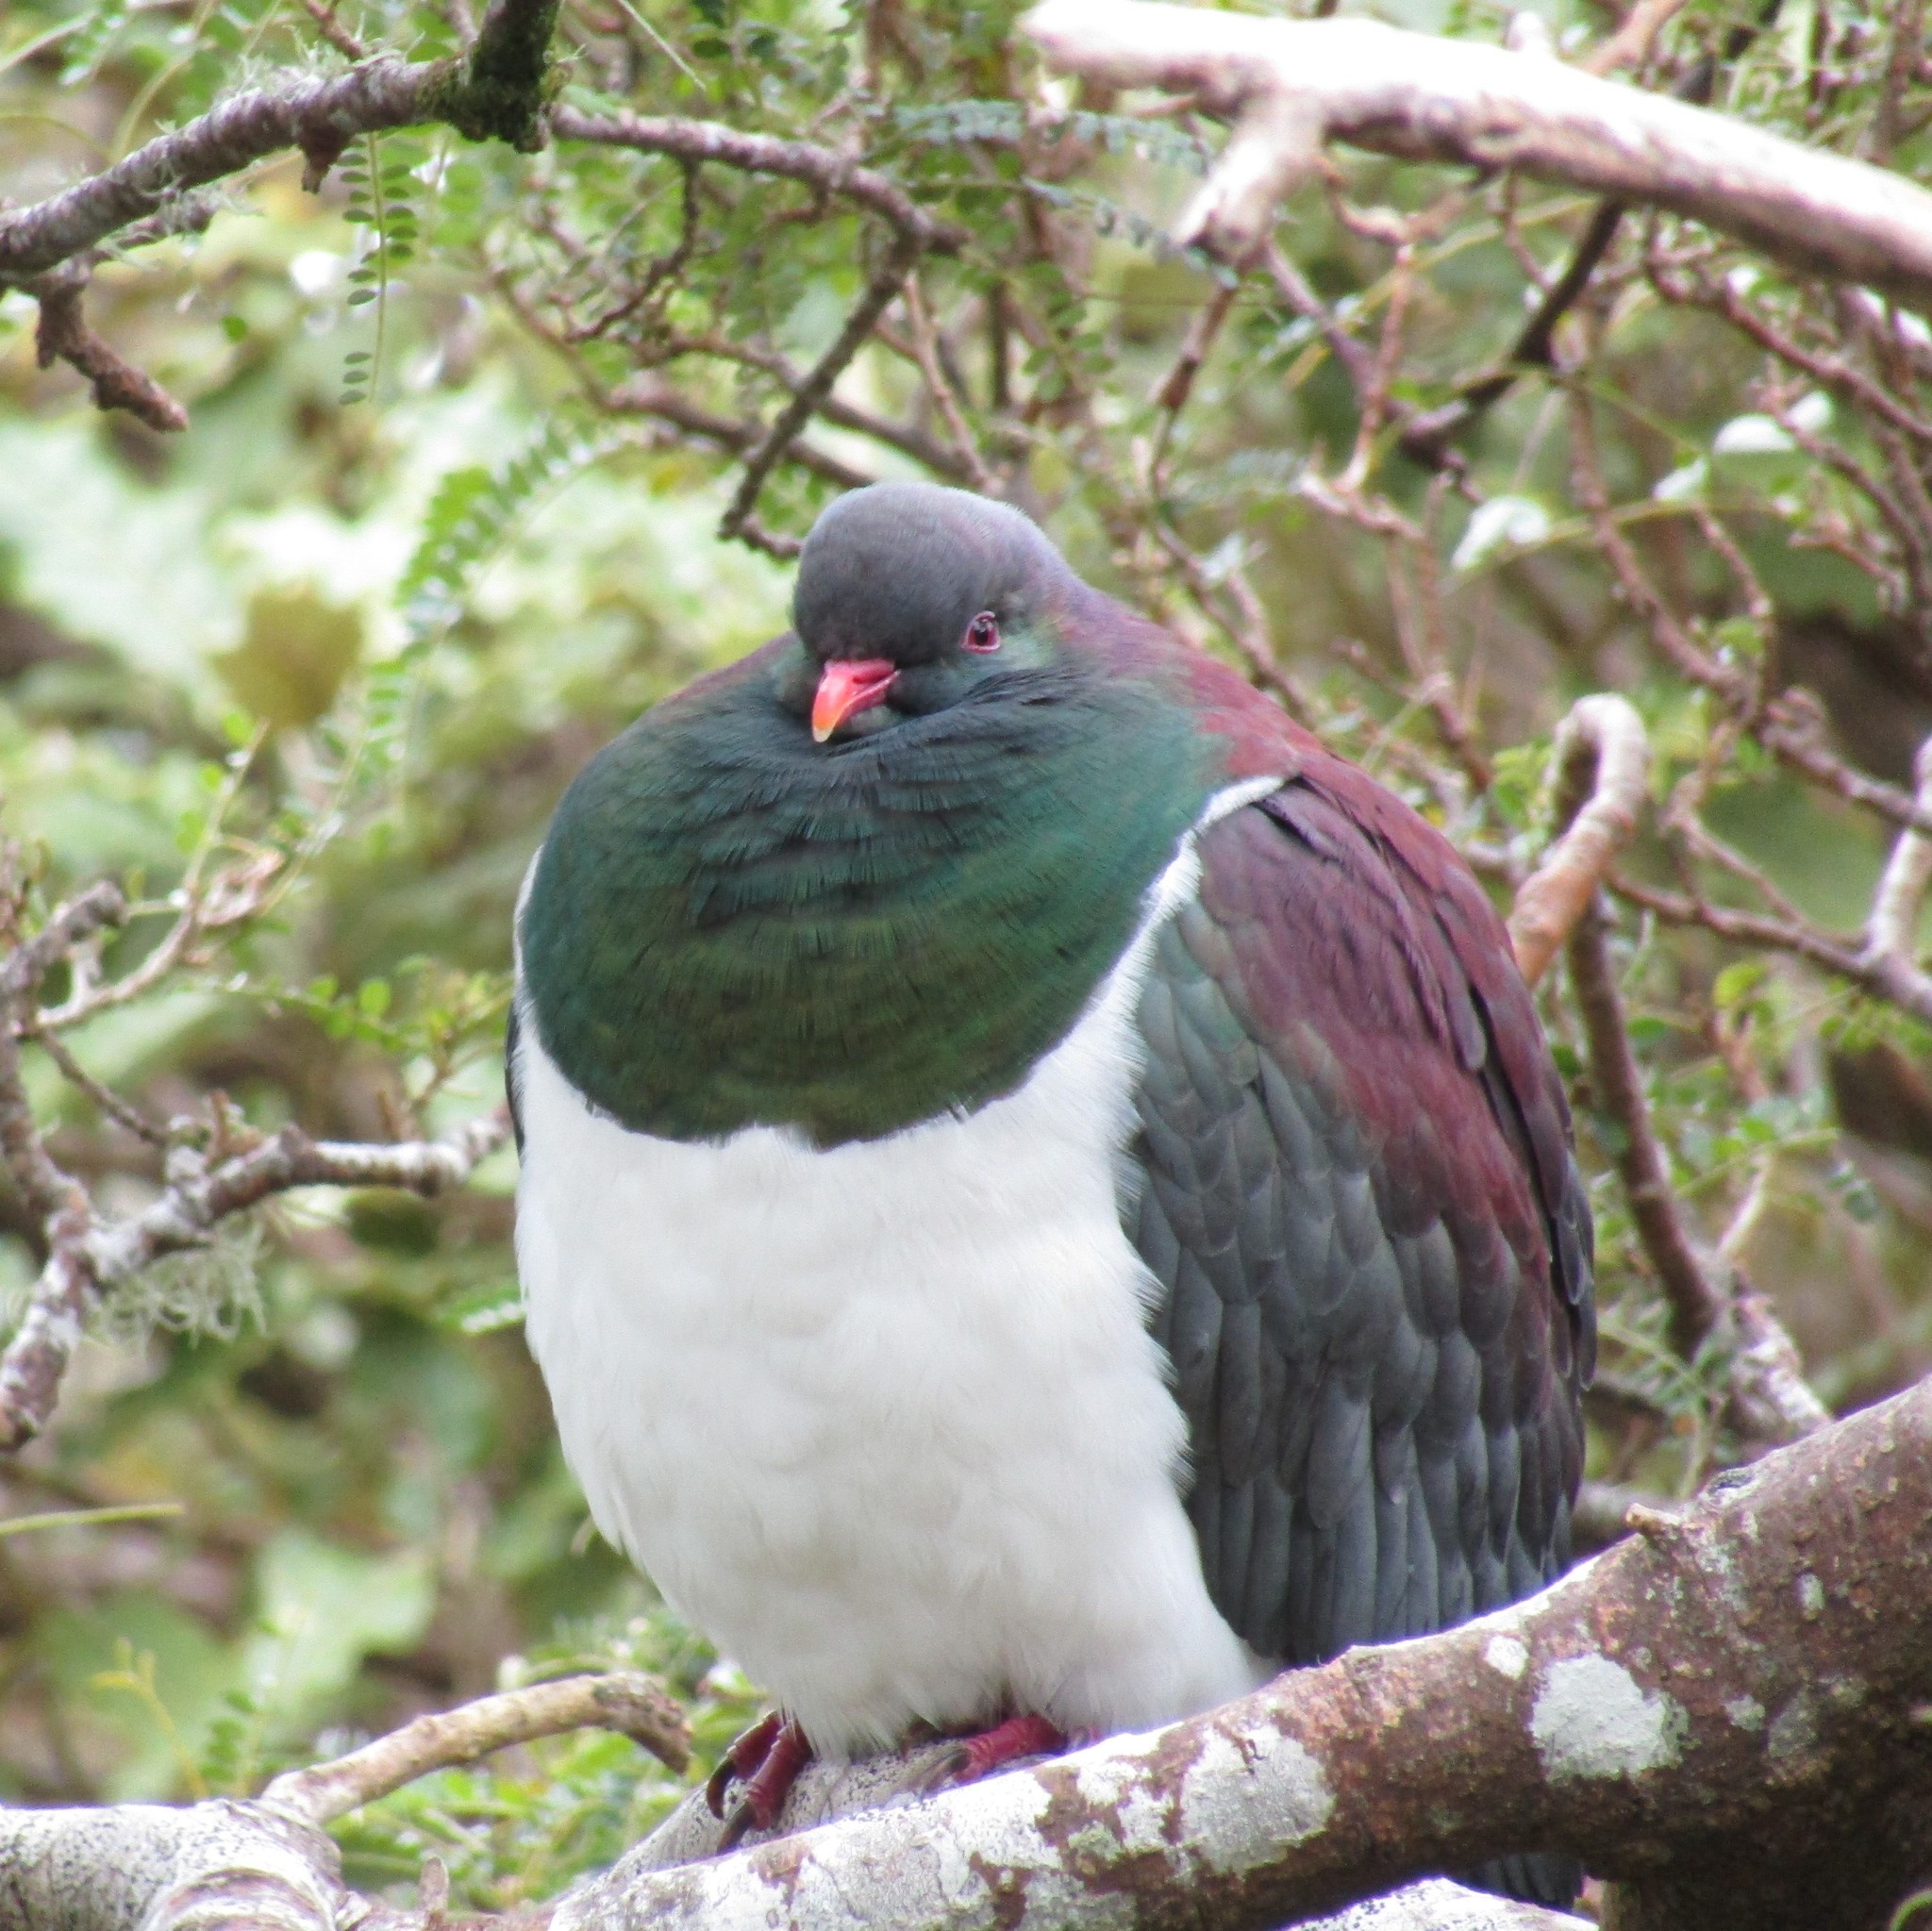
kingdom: Animalia
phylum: Chordata
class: Aves
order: Columbiformes
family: Columbidae
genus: Hemiphaga
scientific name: Hemiphaga novaeseelandiae
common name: New zealand pigeon
